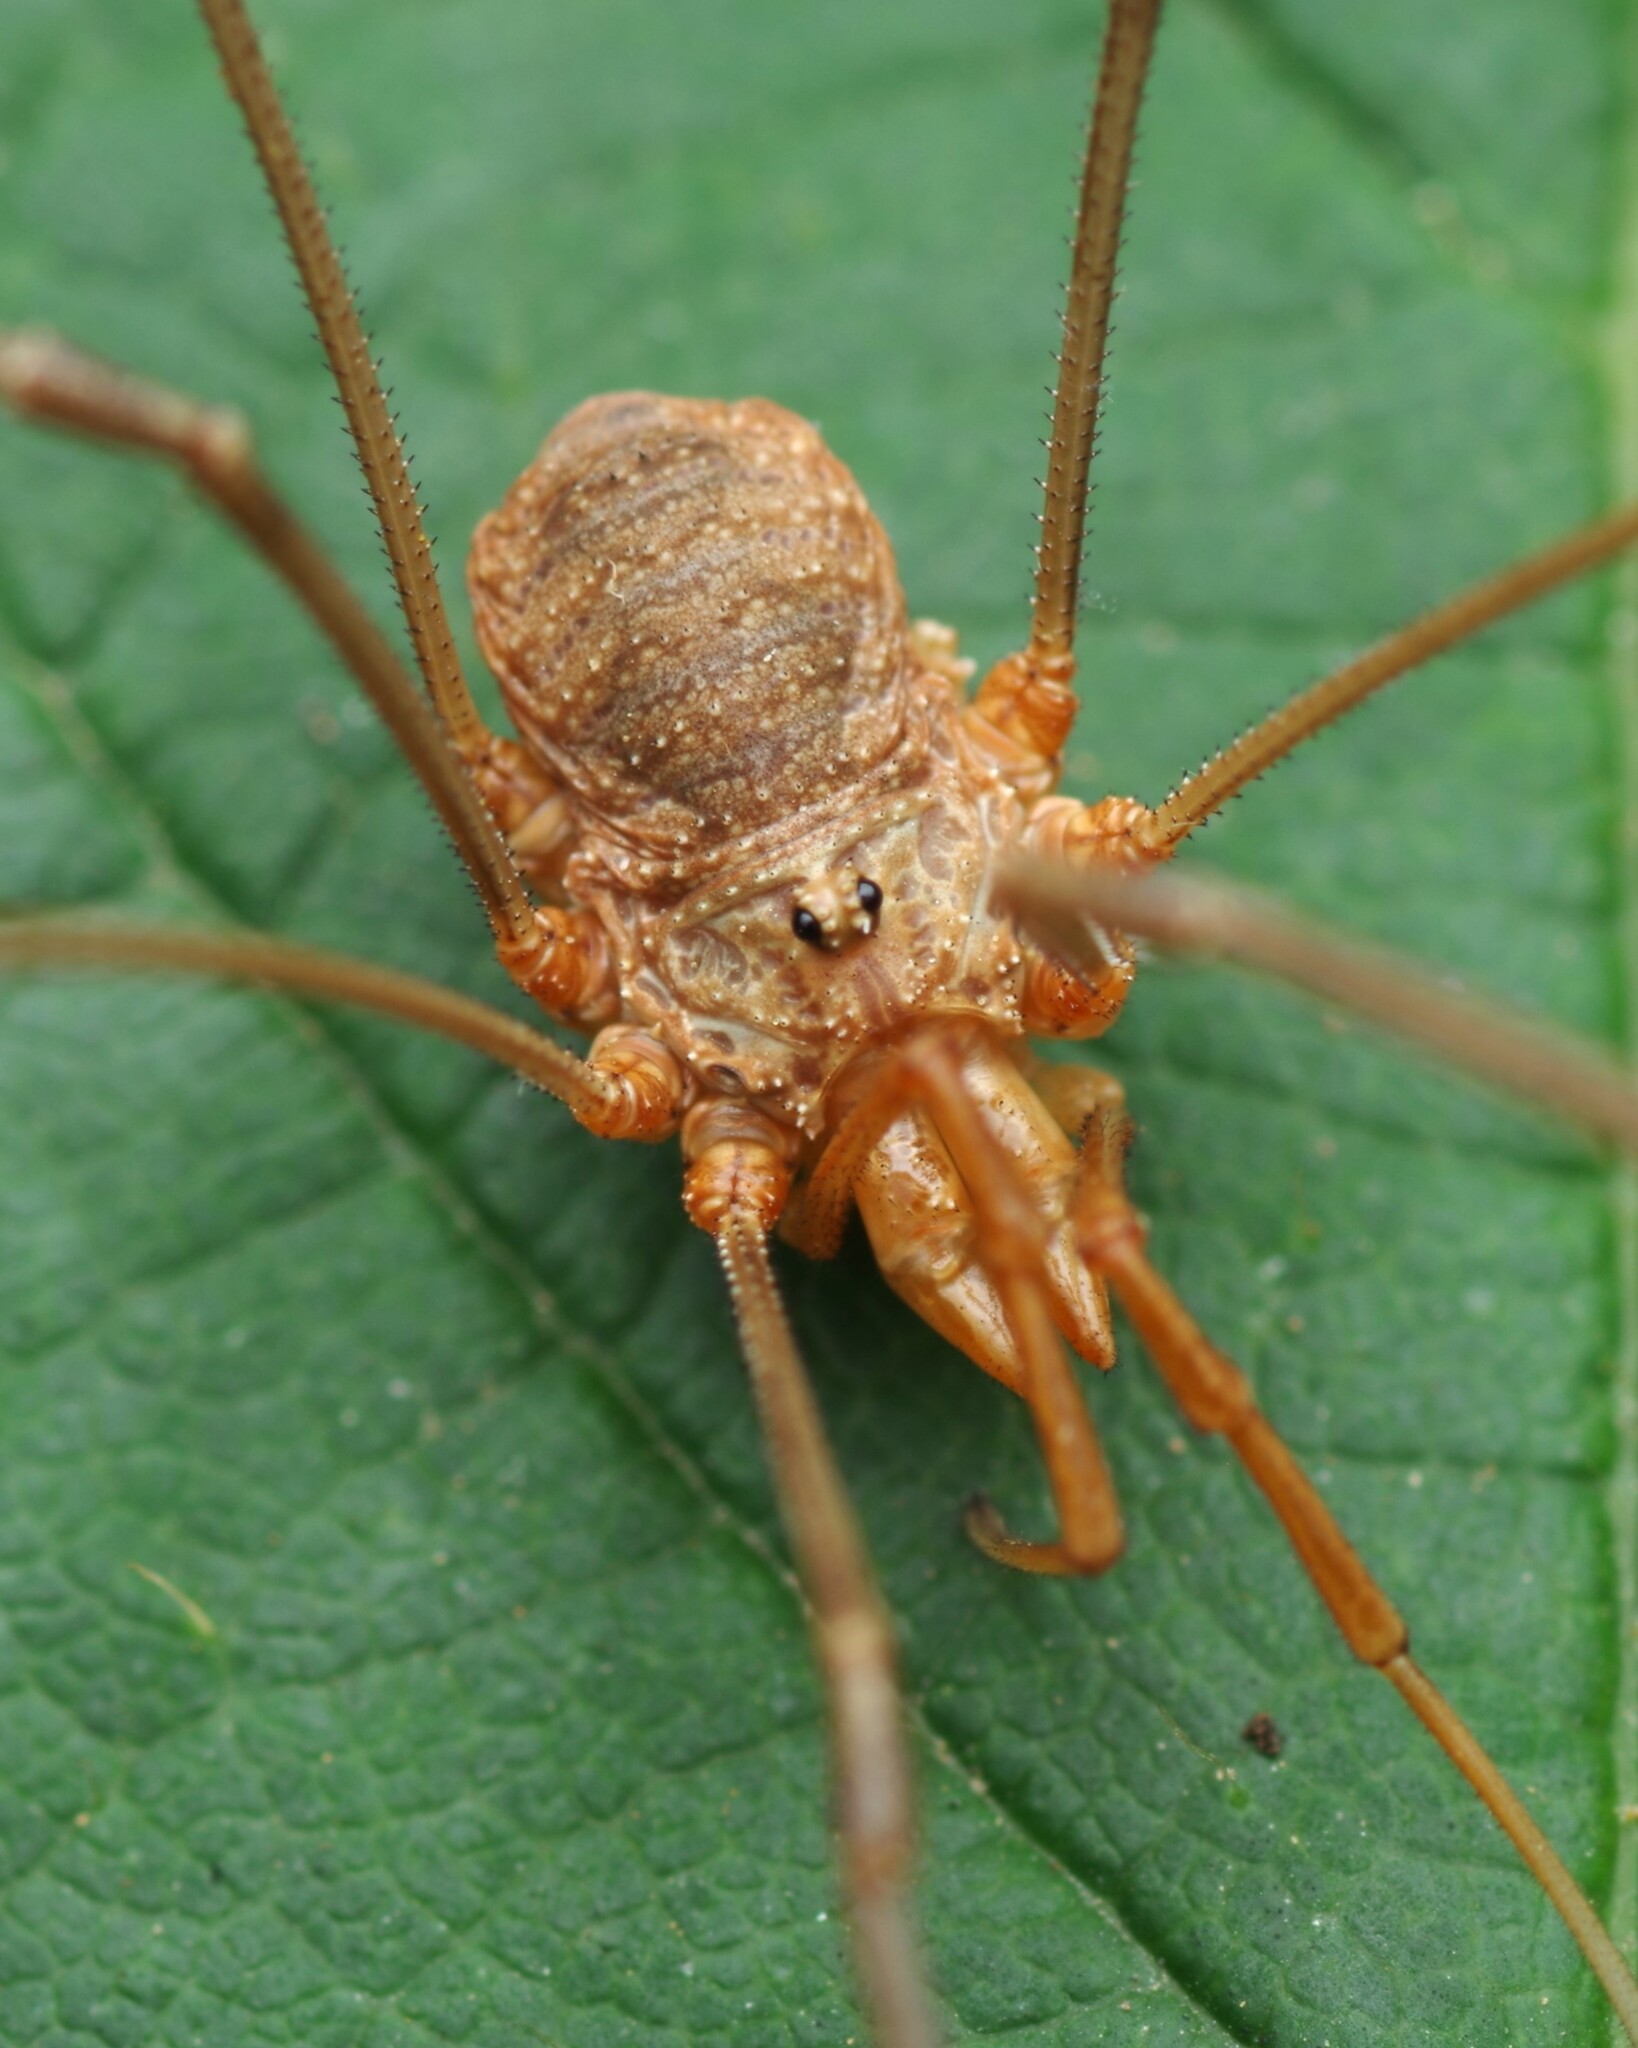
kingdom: Animalia
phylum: Arthropoda
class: Arachnida
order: Opiliones
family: Phalangiidae
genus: Phalangium
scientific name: Phalangium opilio
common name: Daddy longleg
